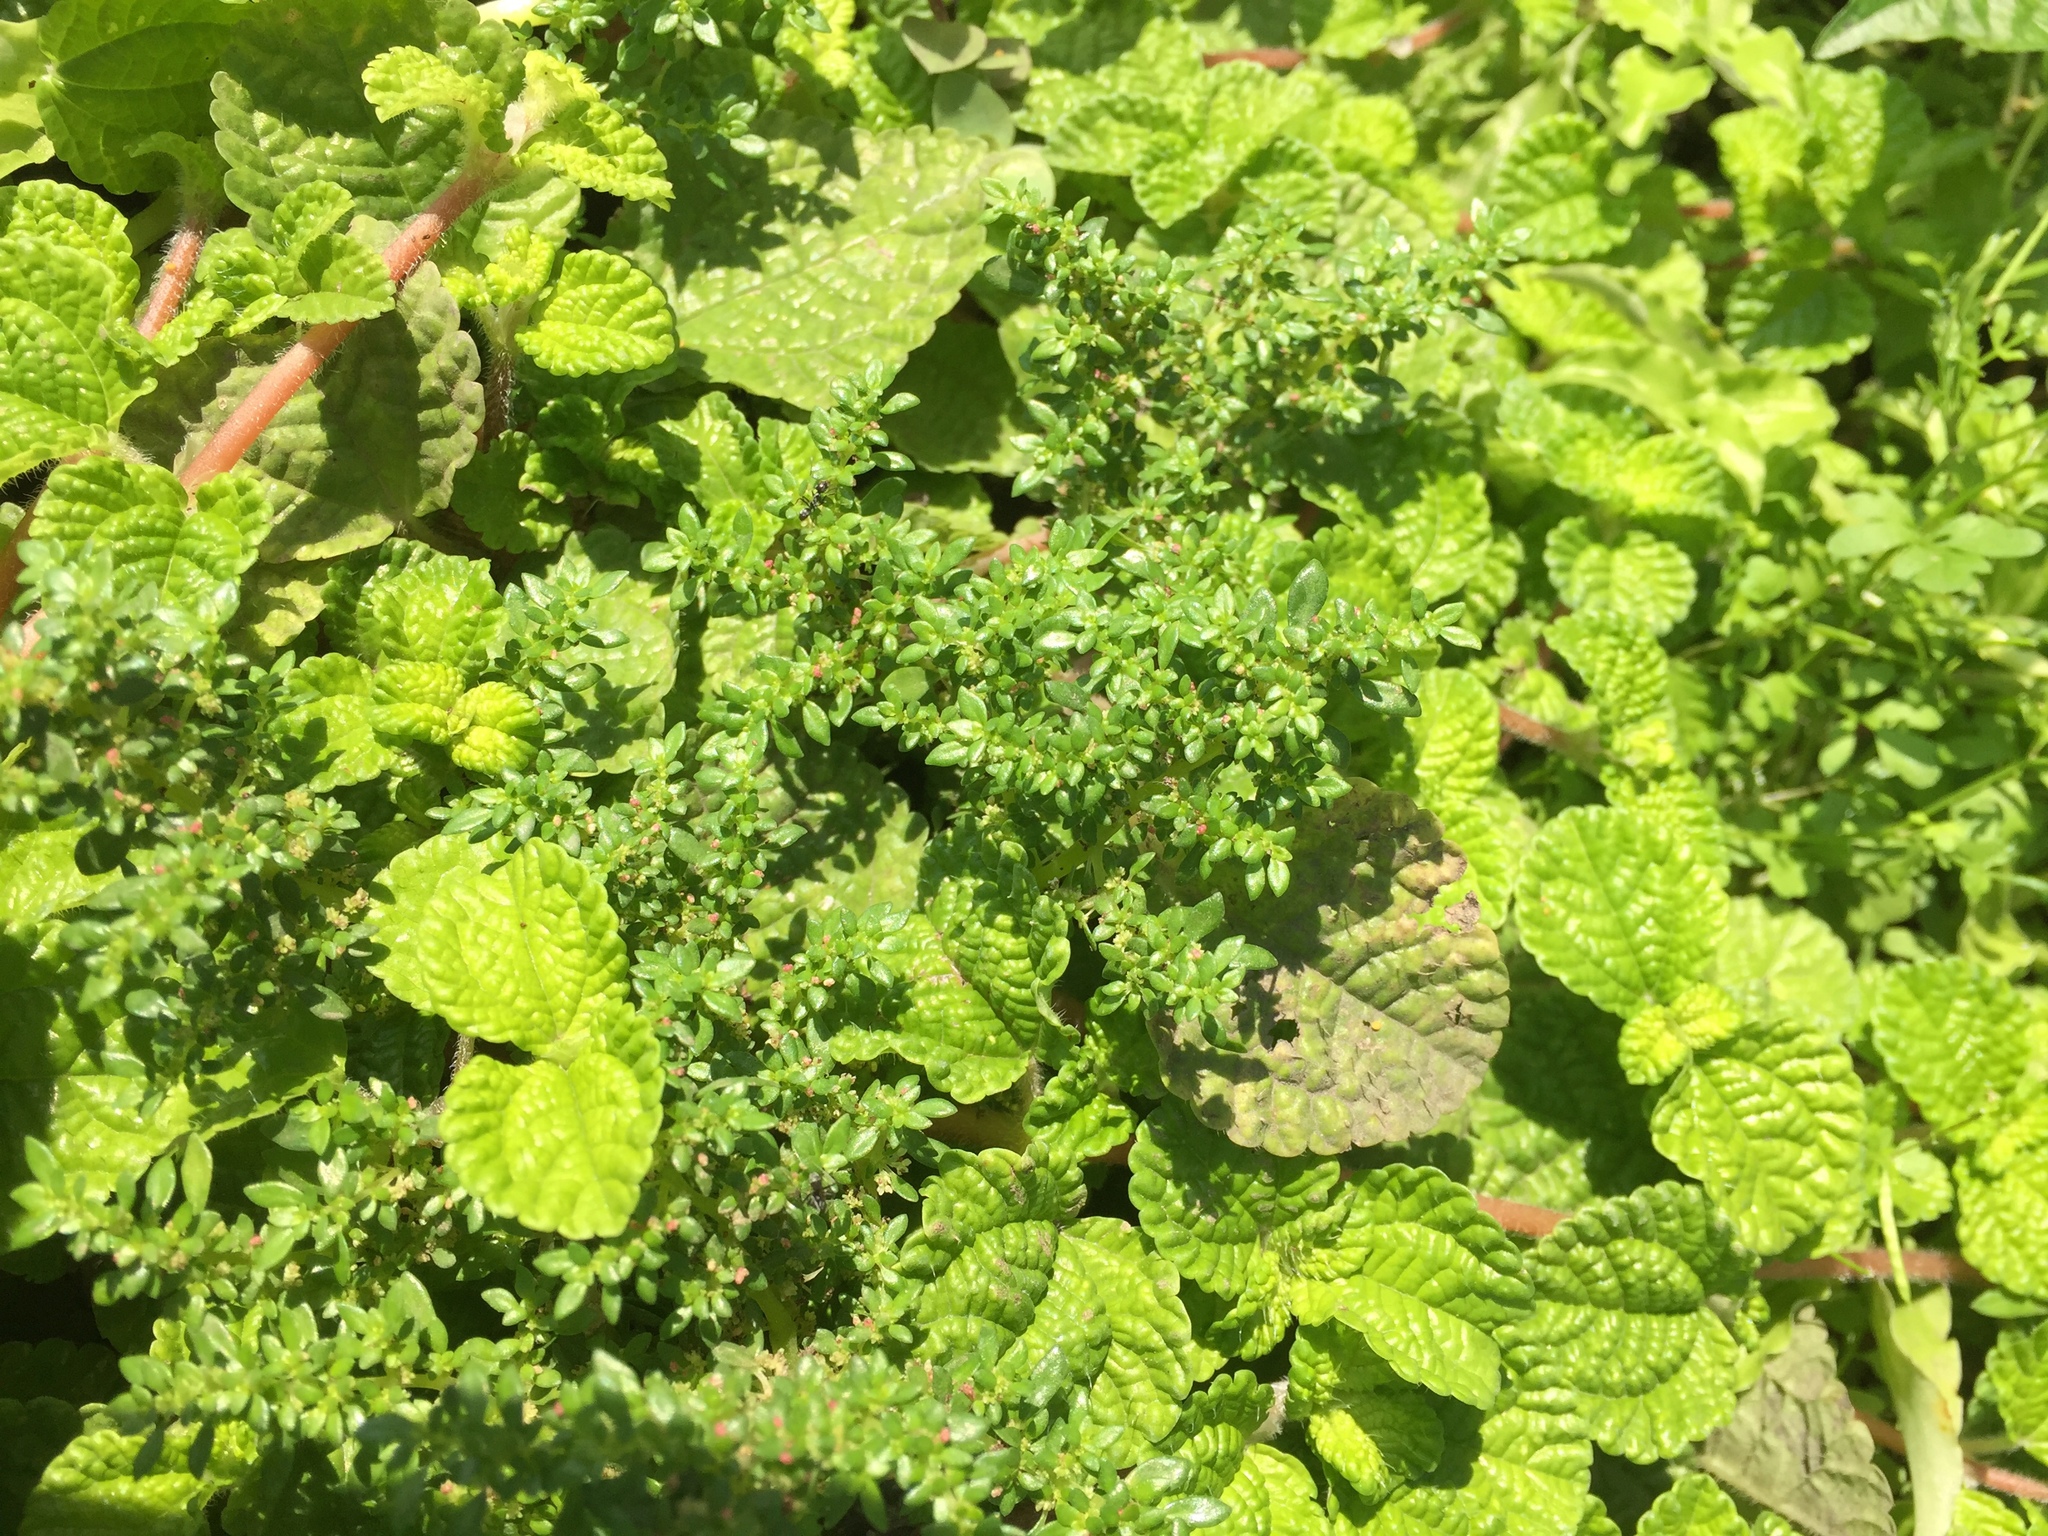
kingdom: Plantae
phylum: Tracheophyta
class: Magnoliopsida
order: Rosales
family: Urticaceae
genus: Pilea
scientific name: Pilea microphylla
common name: Artillery-plant
